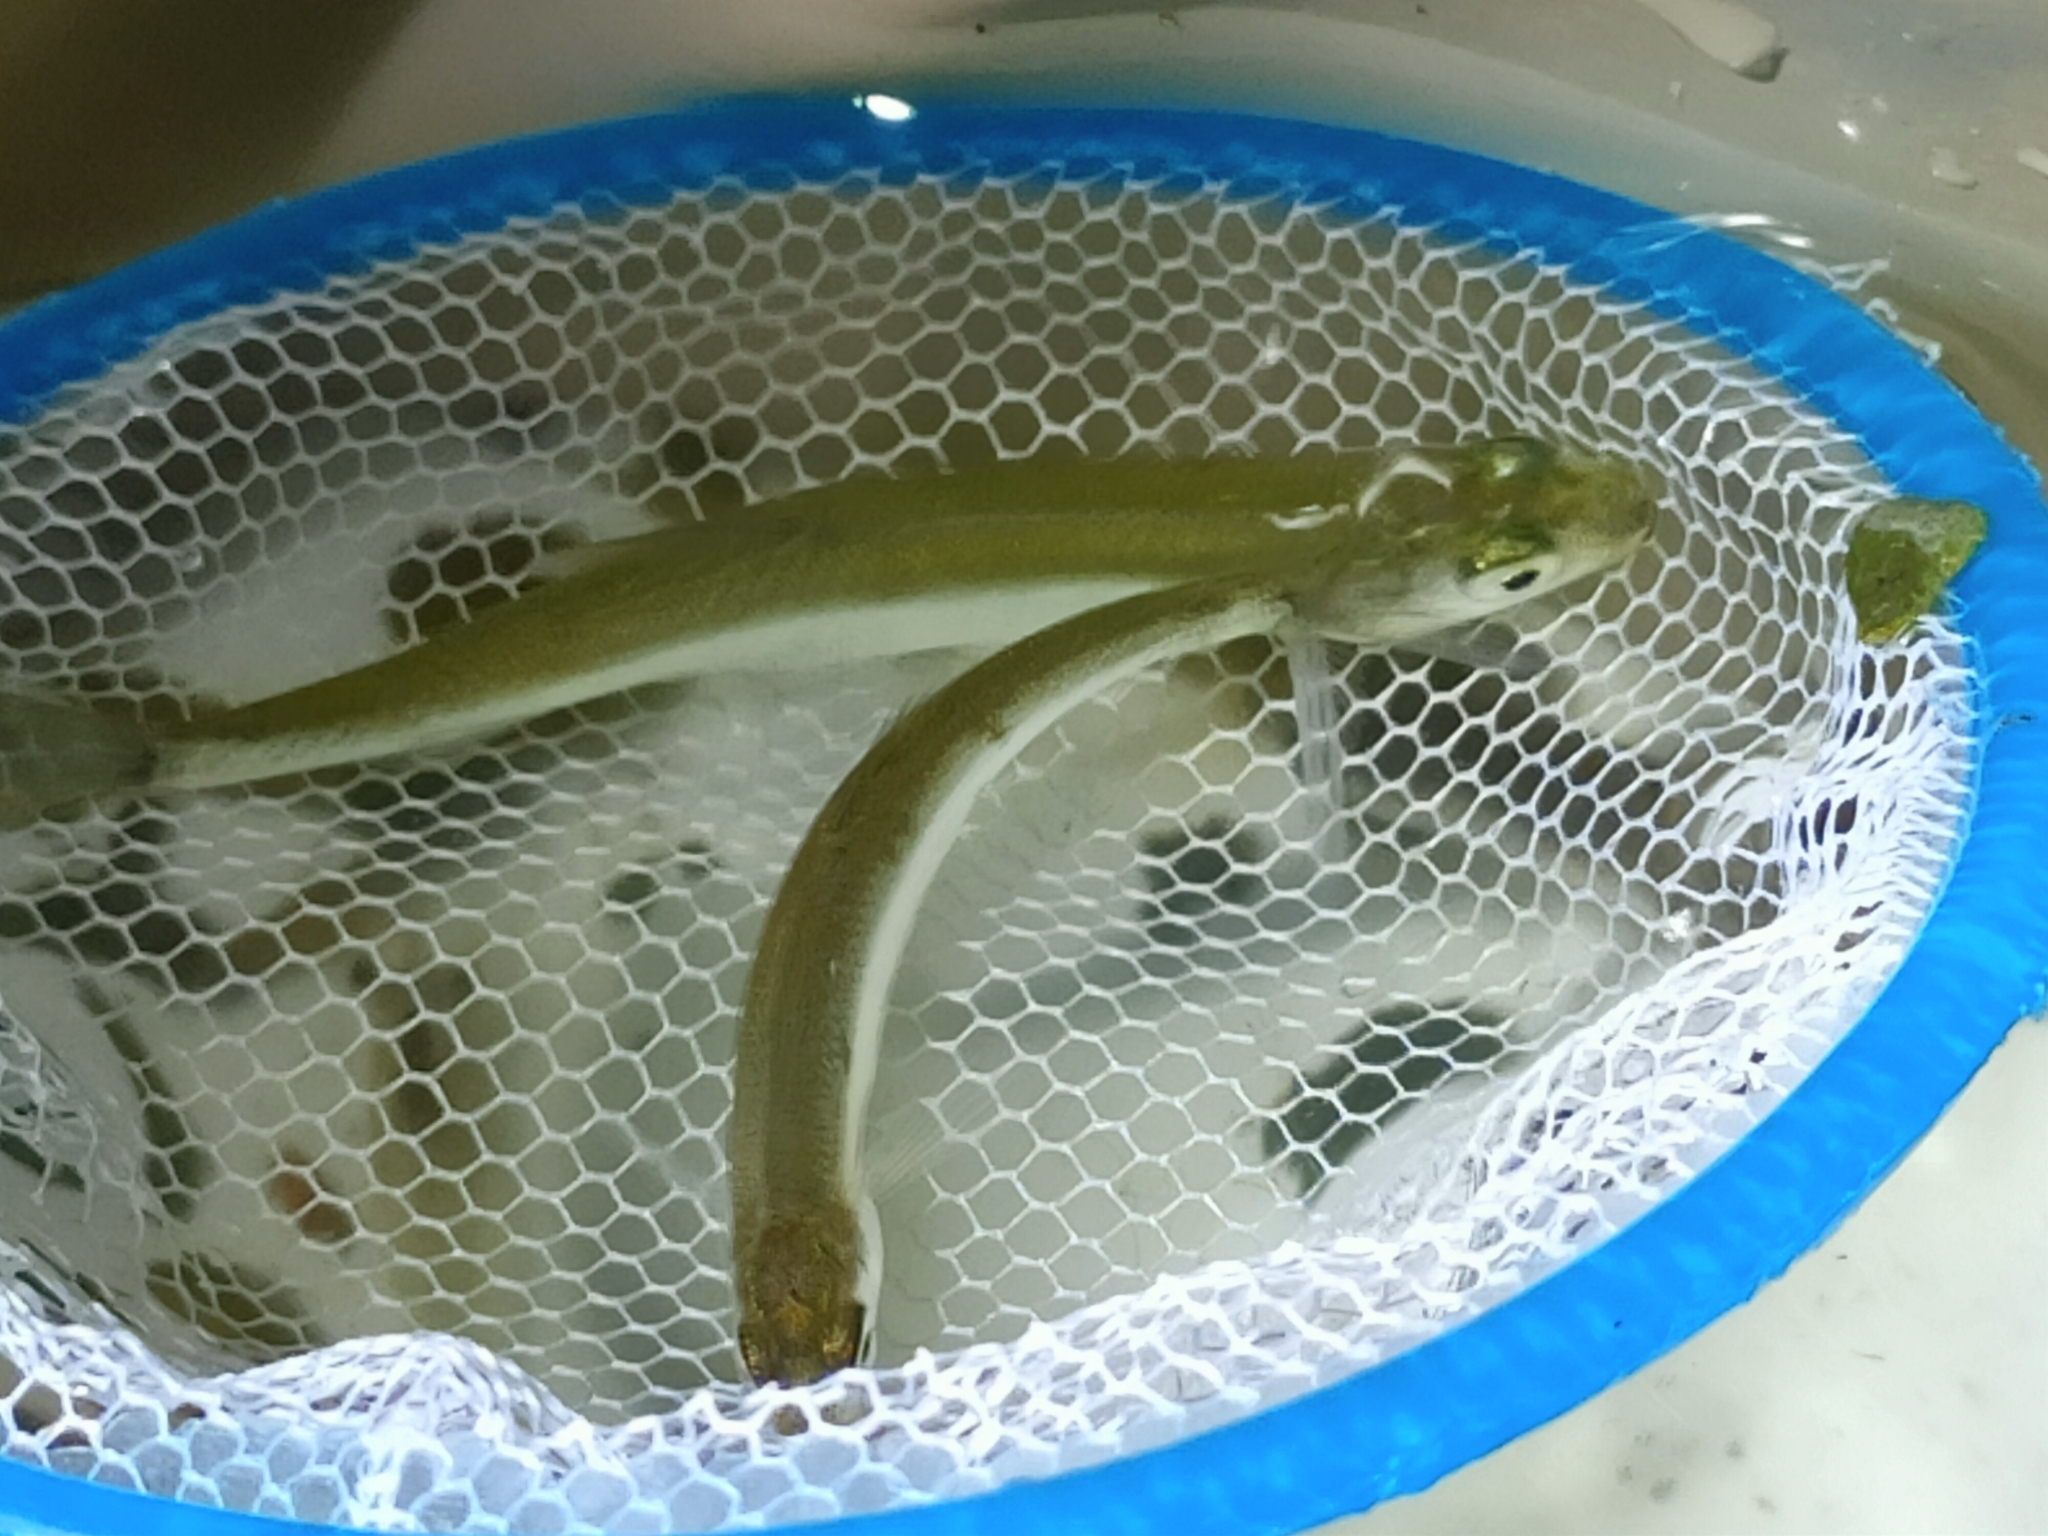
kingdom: Animalia
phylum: Chordata
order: Cypriniformes
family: Cyprinidae
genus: Hemiculter
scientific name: Hemiculter leucisculus
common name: Common sawbelly
